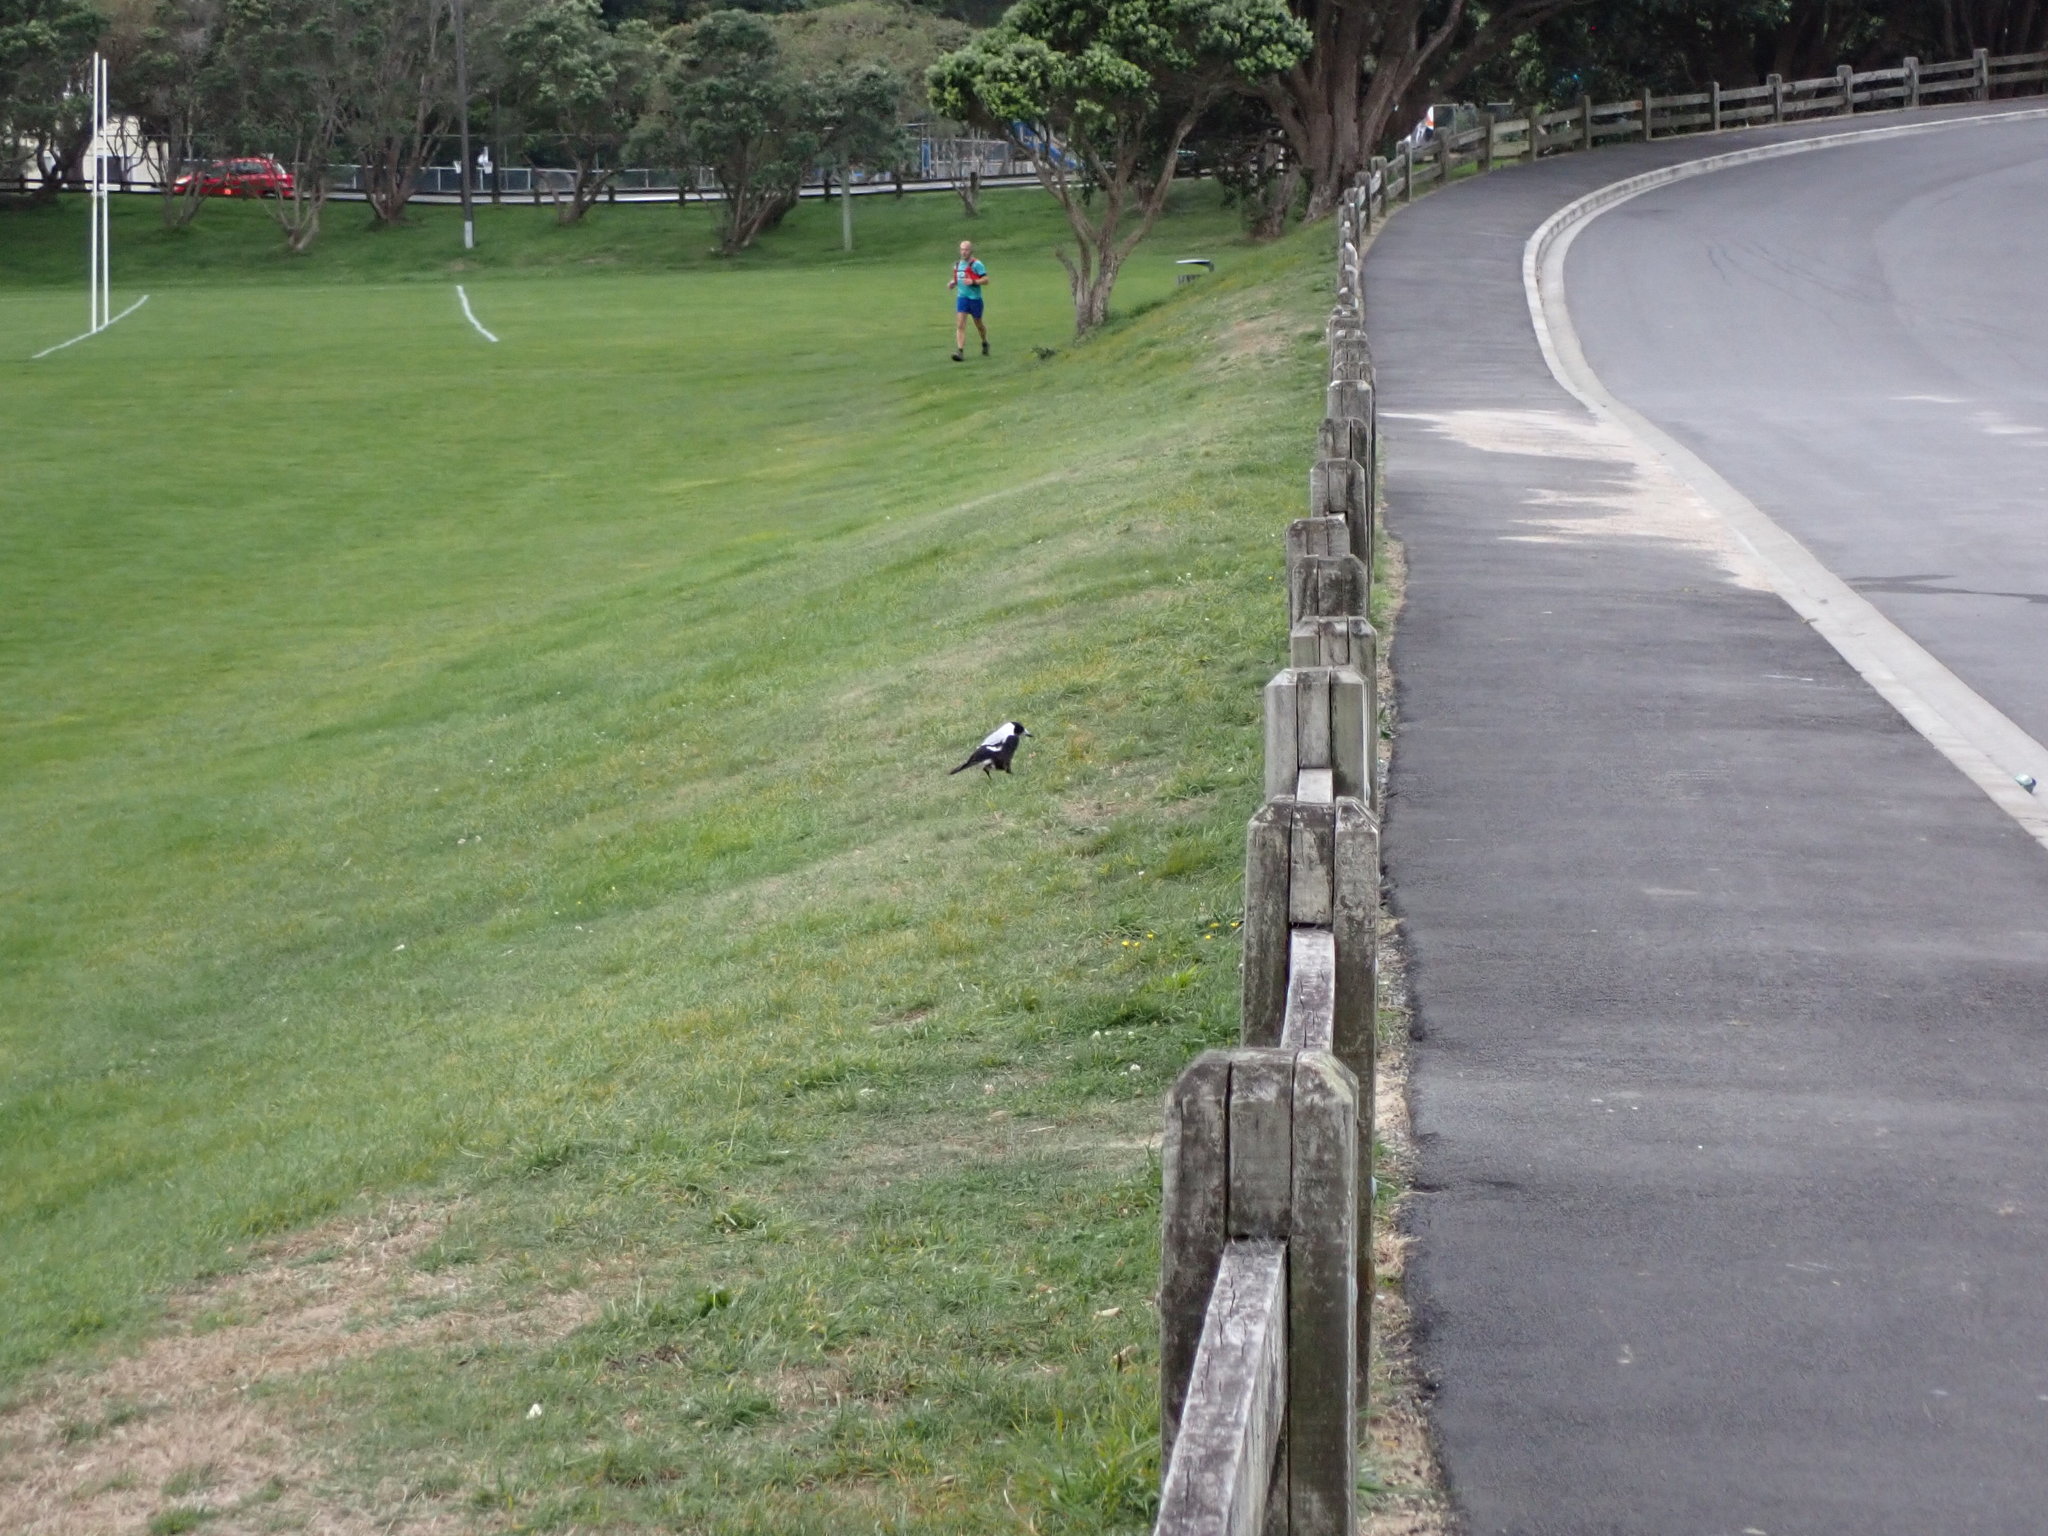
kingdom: Animalia
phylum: Chordata
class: Aves
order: Passeriformes
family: Cracticidae
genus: Gymnorhina
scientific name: Gymnorhina tibicen
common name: Australian magpie
